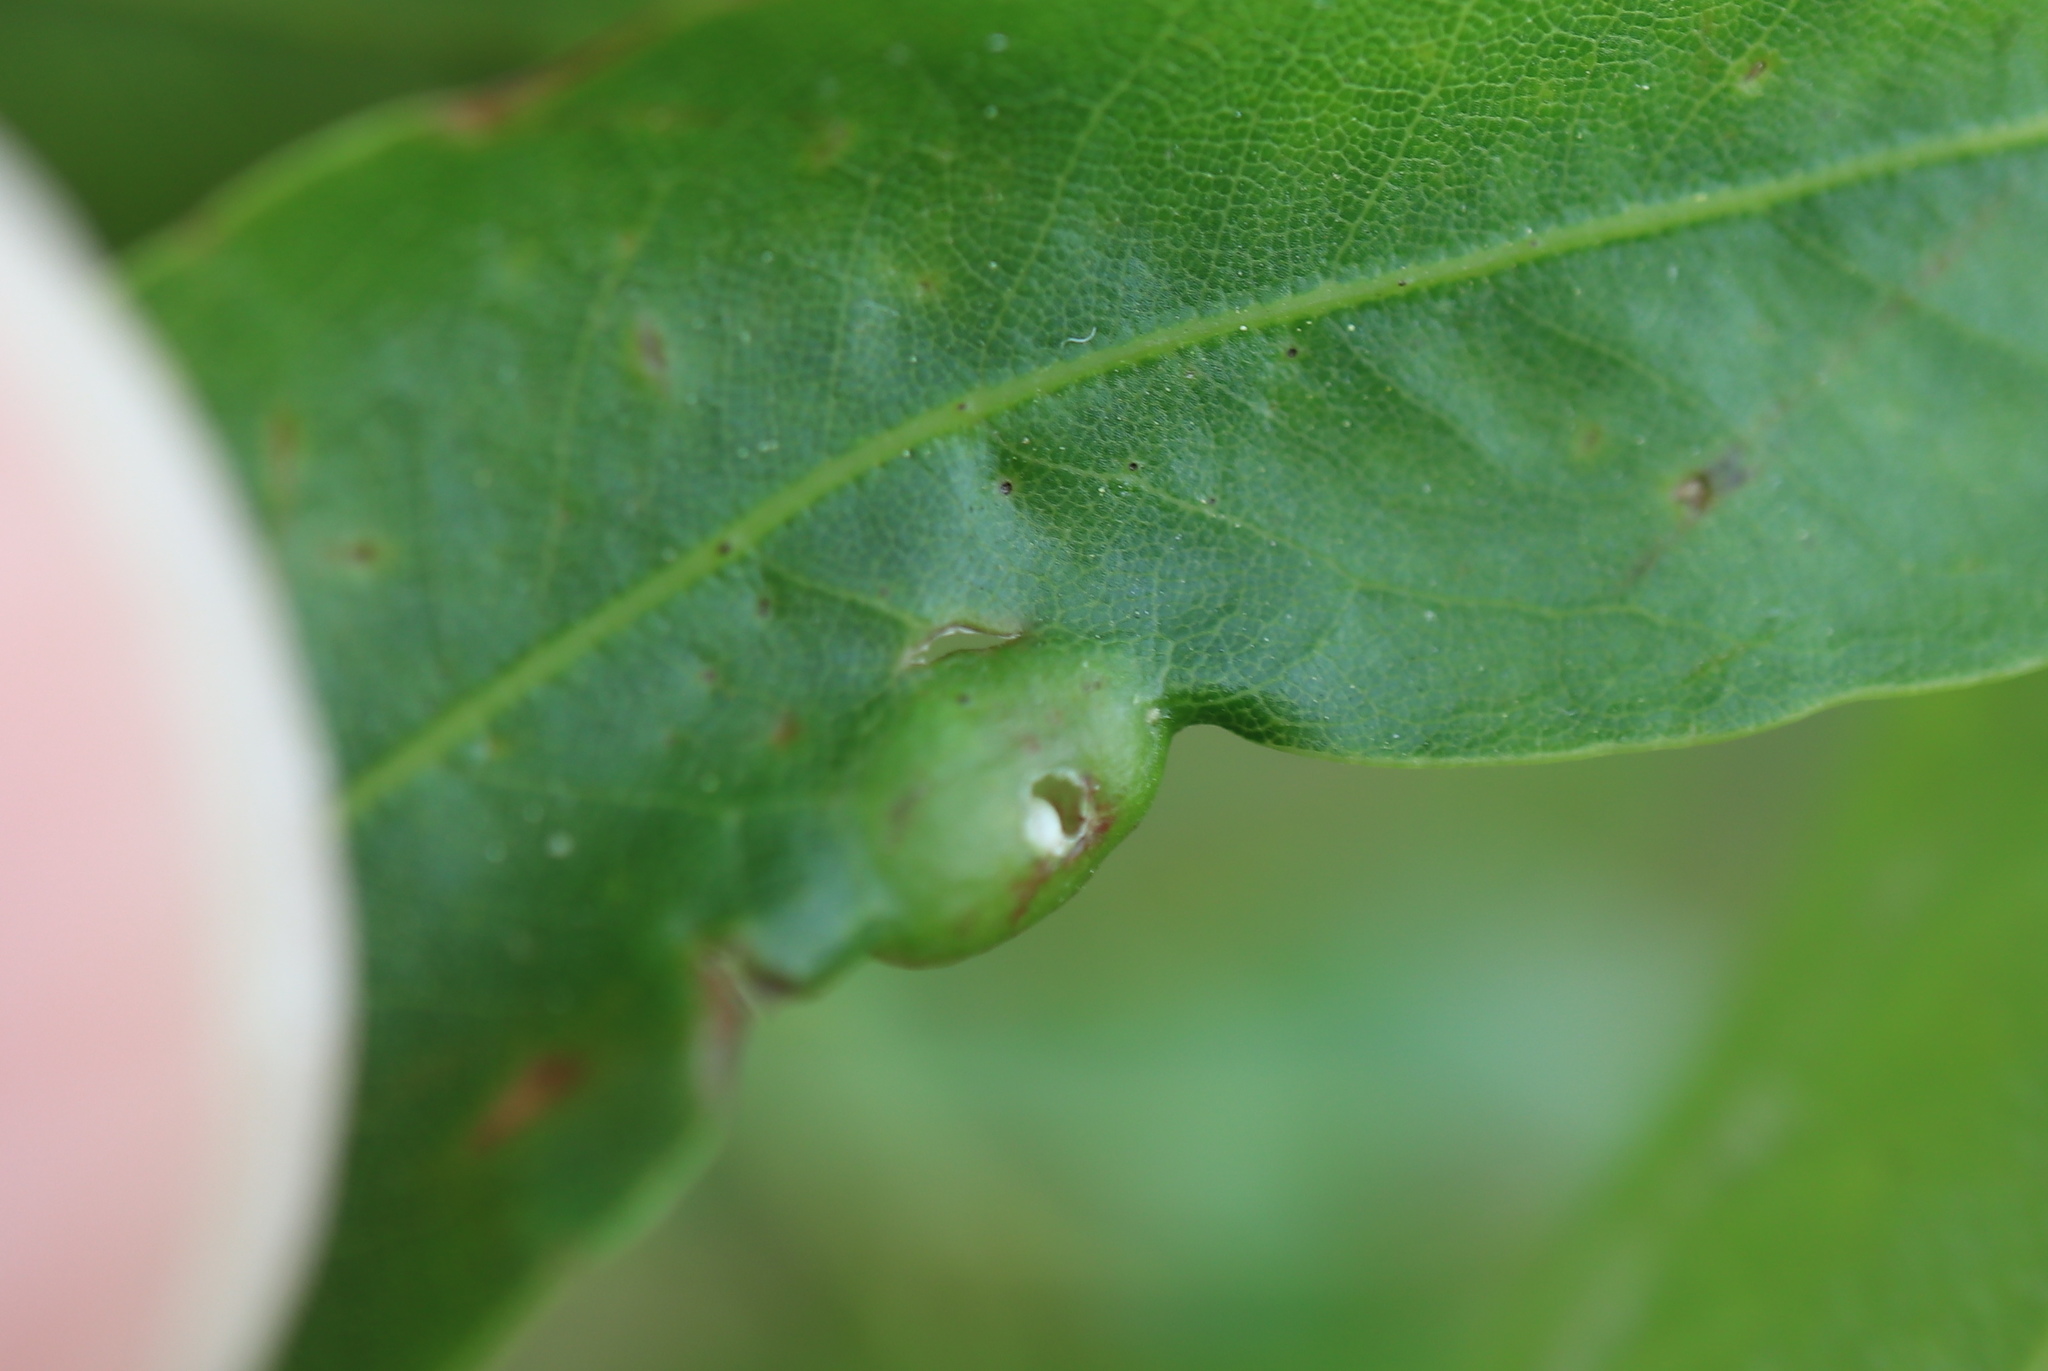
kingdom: Animalia
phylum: Arthropoda
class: Insecta
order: Hymenoptera
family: Cynipidae
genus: Dryocosmus
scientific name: Dryocosmus
